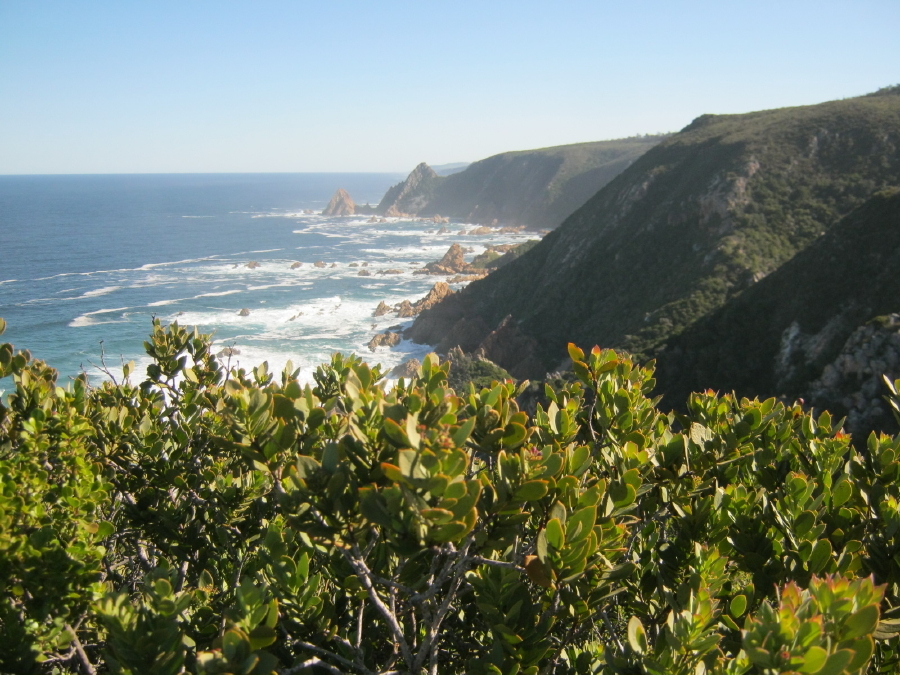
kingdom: Plantae
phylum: Tracheophyta
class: Magnoliopsida
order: Santalales
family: Santalaceae
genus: Osyris
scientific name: Osyris compressa
